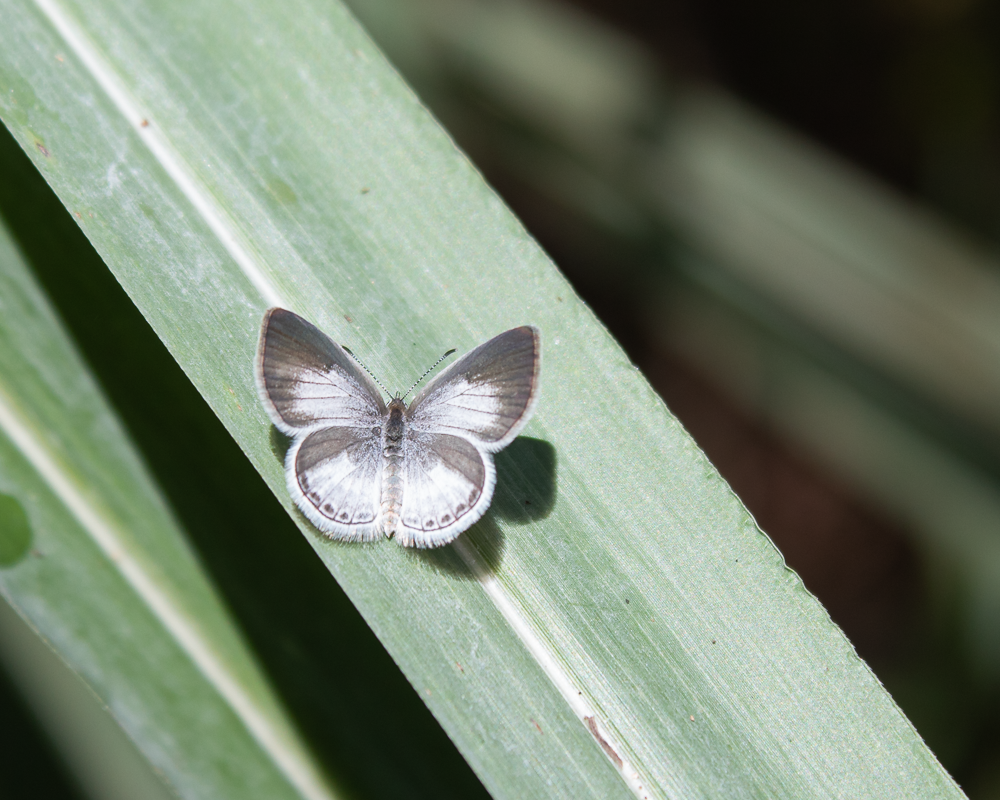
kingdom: Animalia
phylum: Arthropoda
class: Insecta
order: Lepidoptera
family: Lycaenidae
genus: Elkalyce
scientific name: Elkalyce cogina
